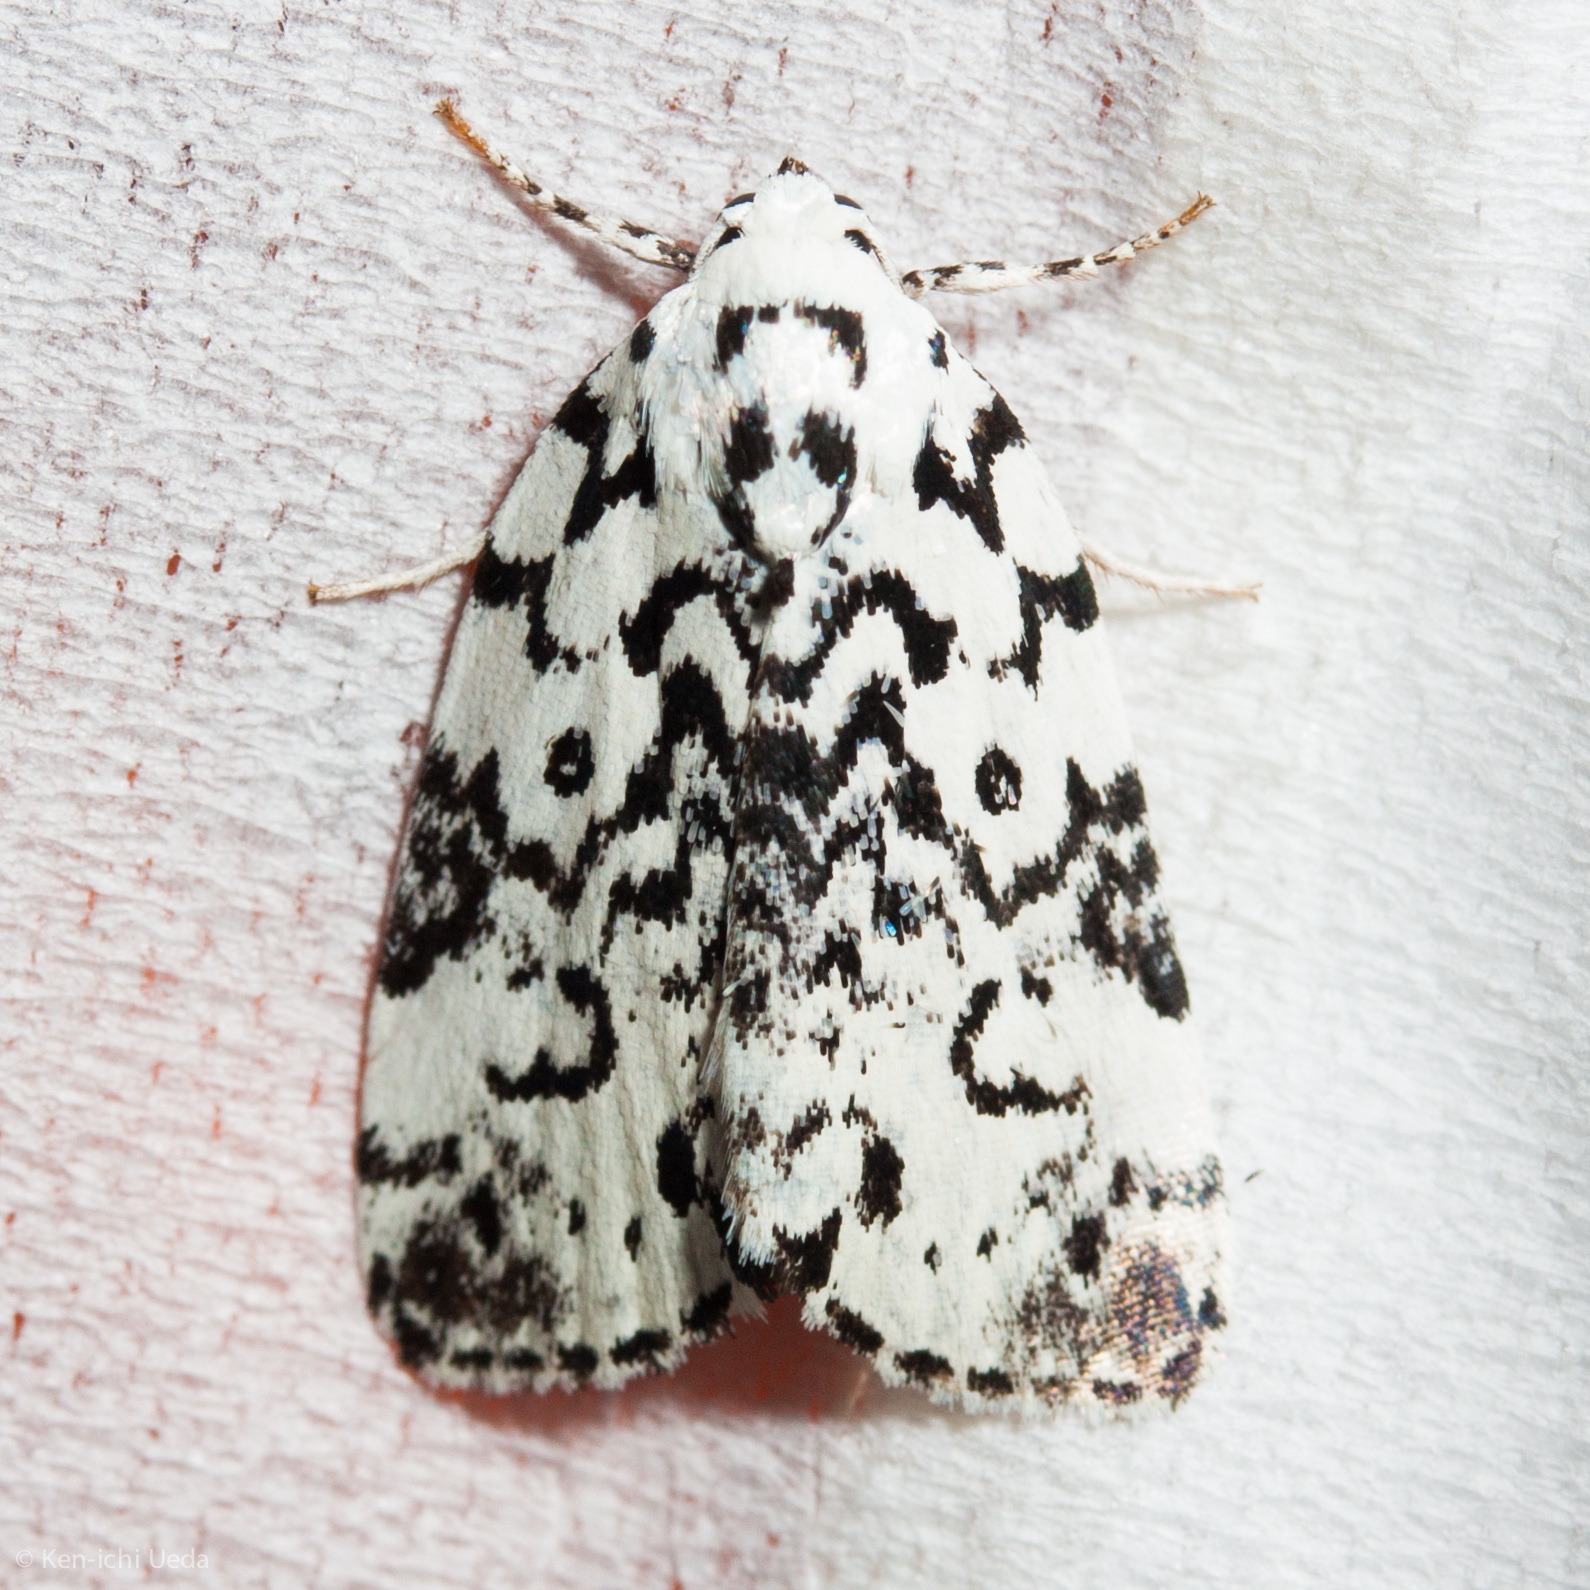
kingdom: Animalia
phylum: Arthropoda
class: Insecta
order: Lepidoptera
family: Noctuidae
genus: Polygrammate
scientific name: Polygrammate hebraeicum
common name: Hebrew moth
